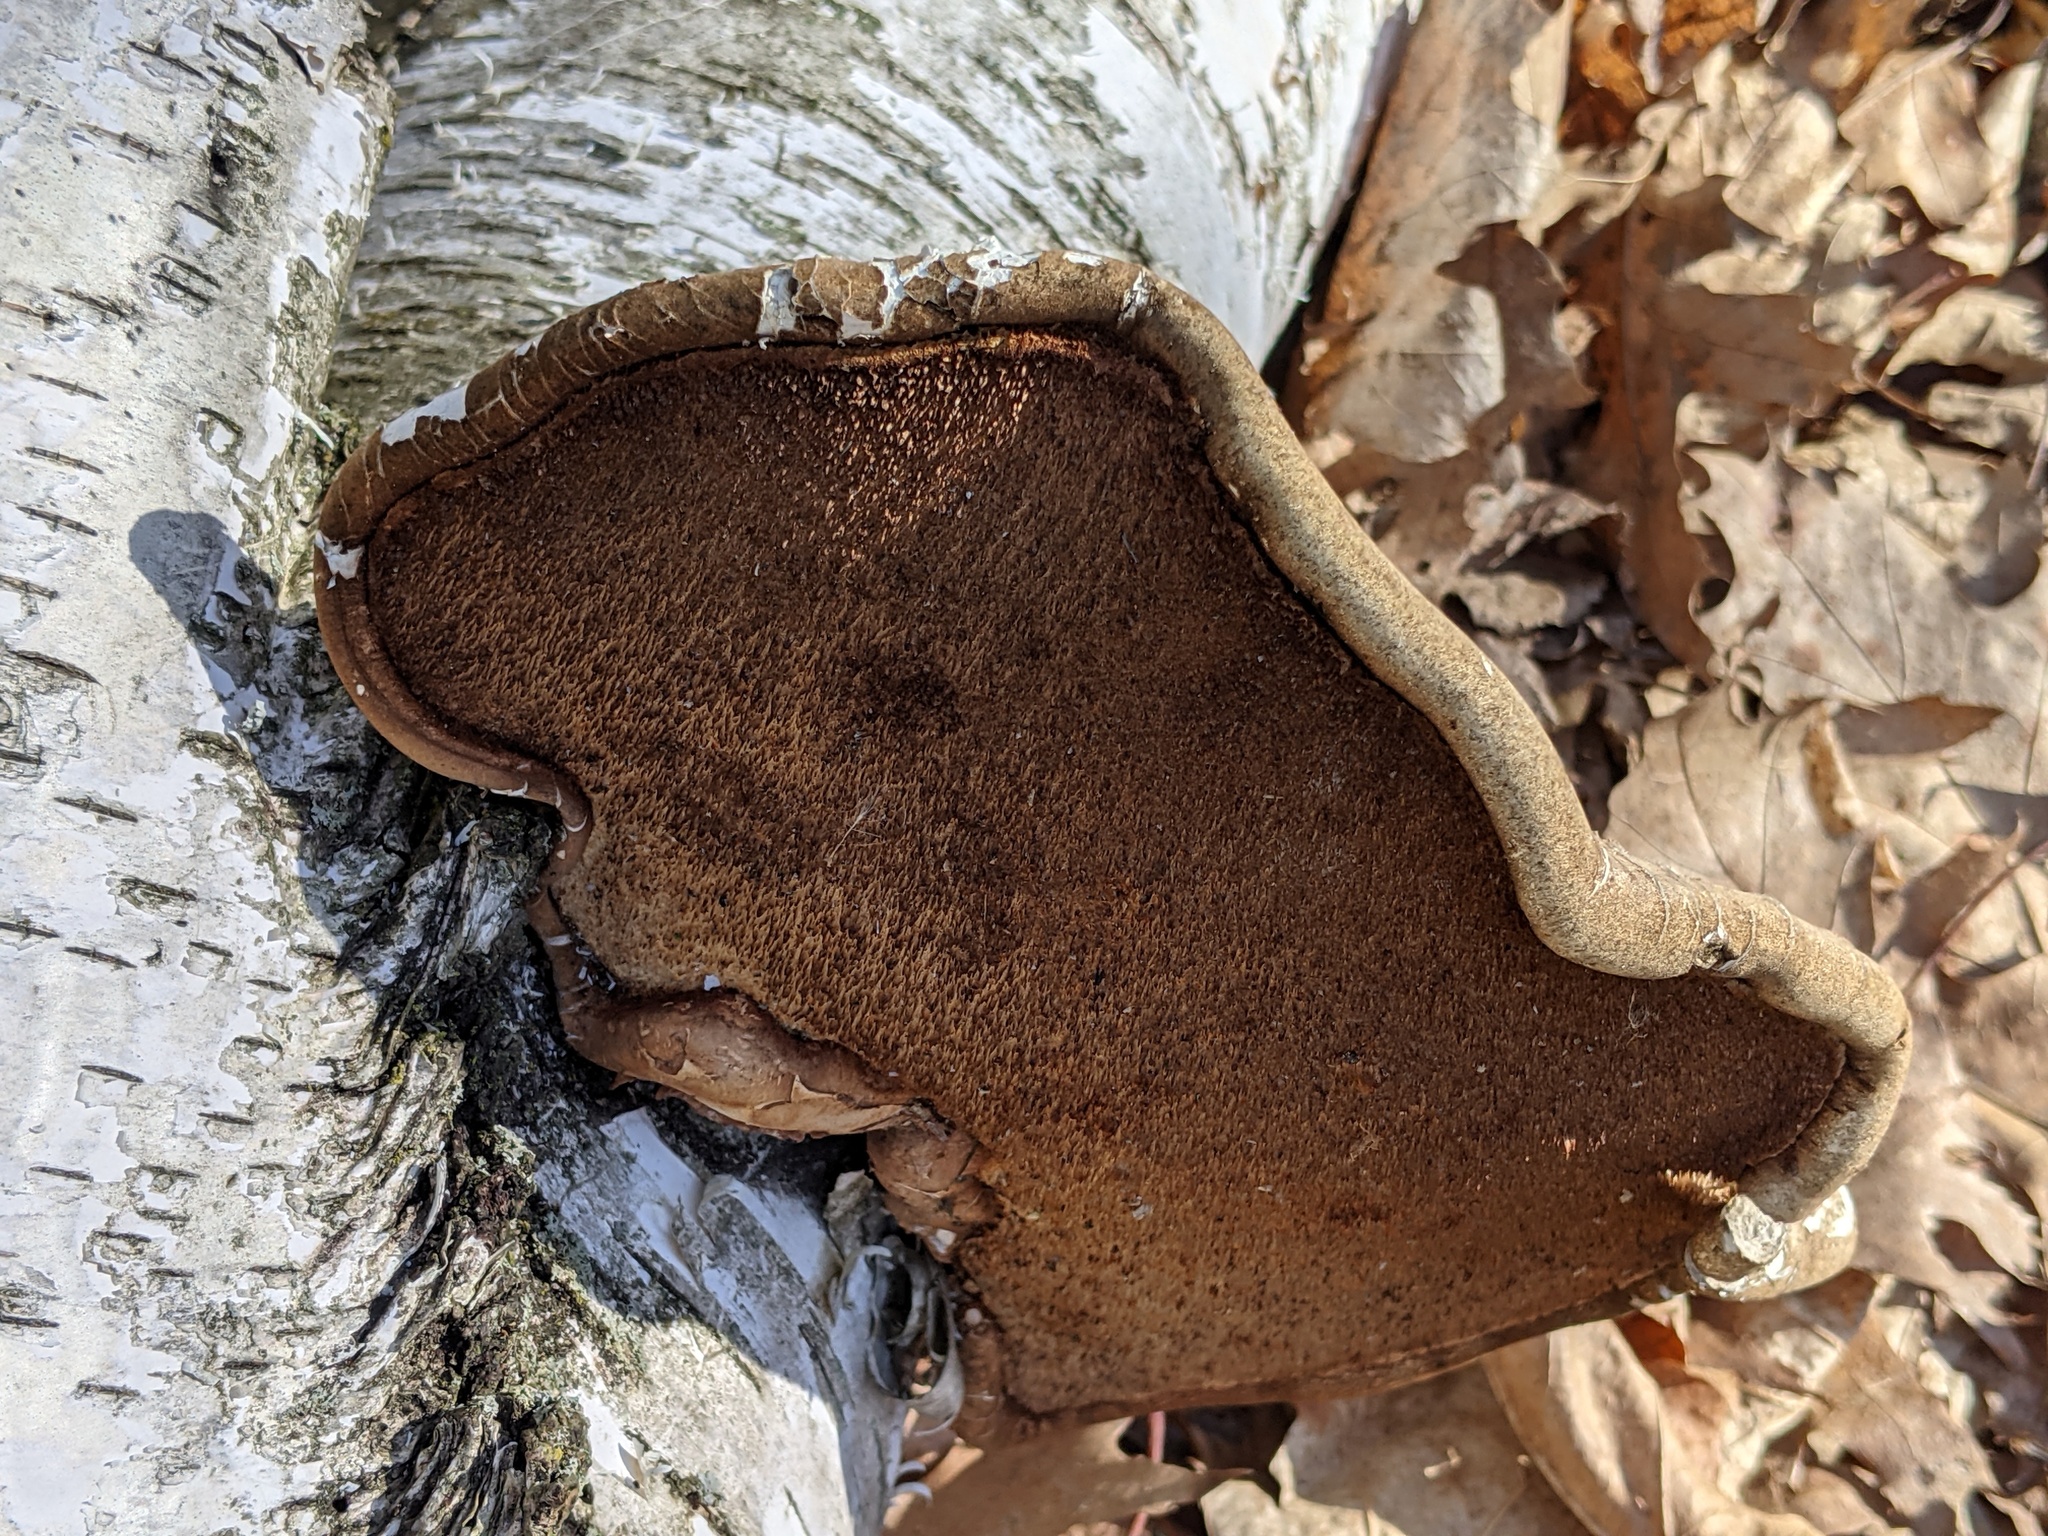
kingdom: Fungi
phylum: Basidiomycota
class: Agaricomycetes
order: Polyporales
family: Fomitopsidaceae
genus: Fomitopsis
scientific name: Fomitopsis betulina
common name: Birch polypore
